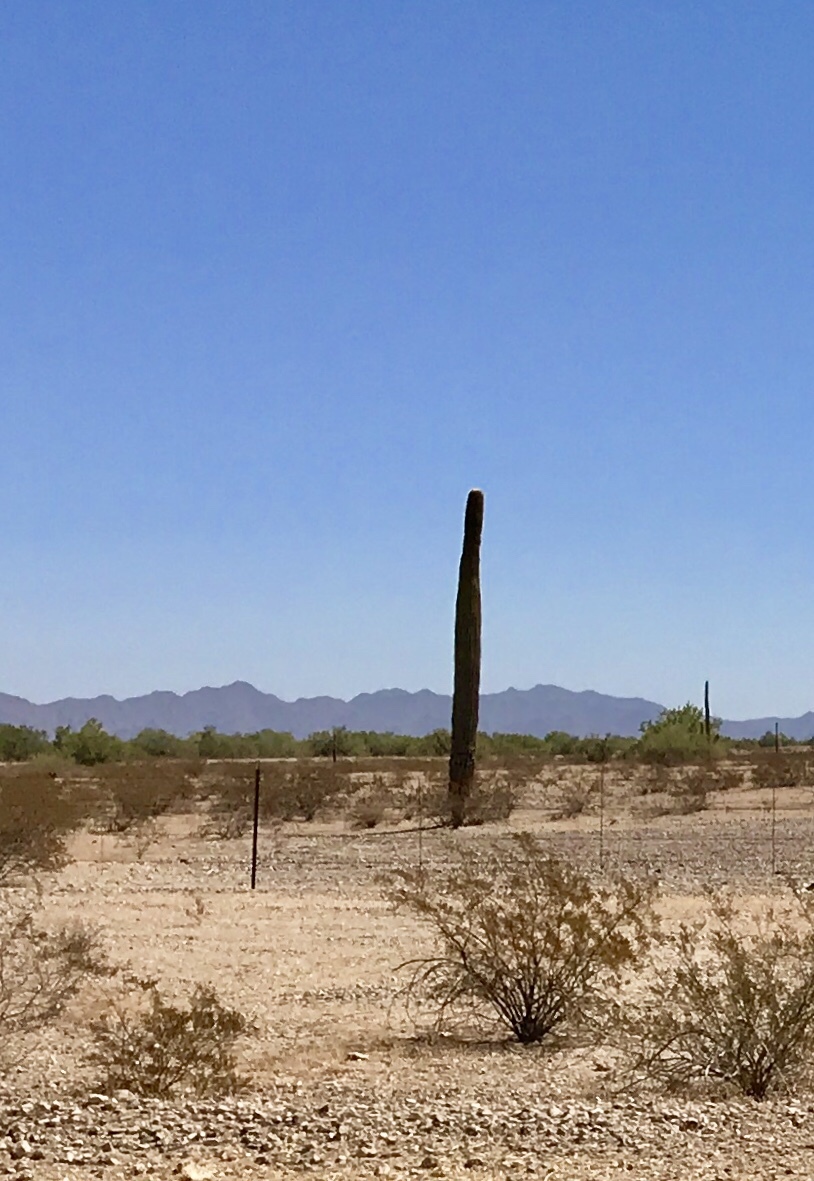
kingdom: Plantae
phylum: Tracheophyta
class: Magnoliopsida
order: Caryophyllales
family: Cactaceae
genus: Carnegiea
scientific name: Carnegiea gigantea
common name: Saguaro
